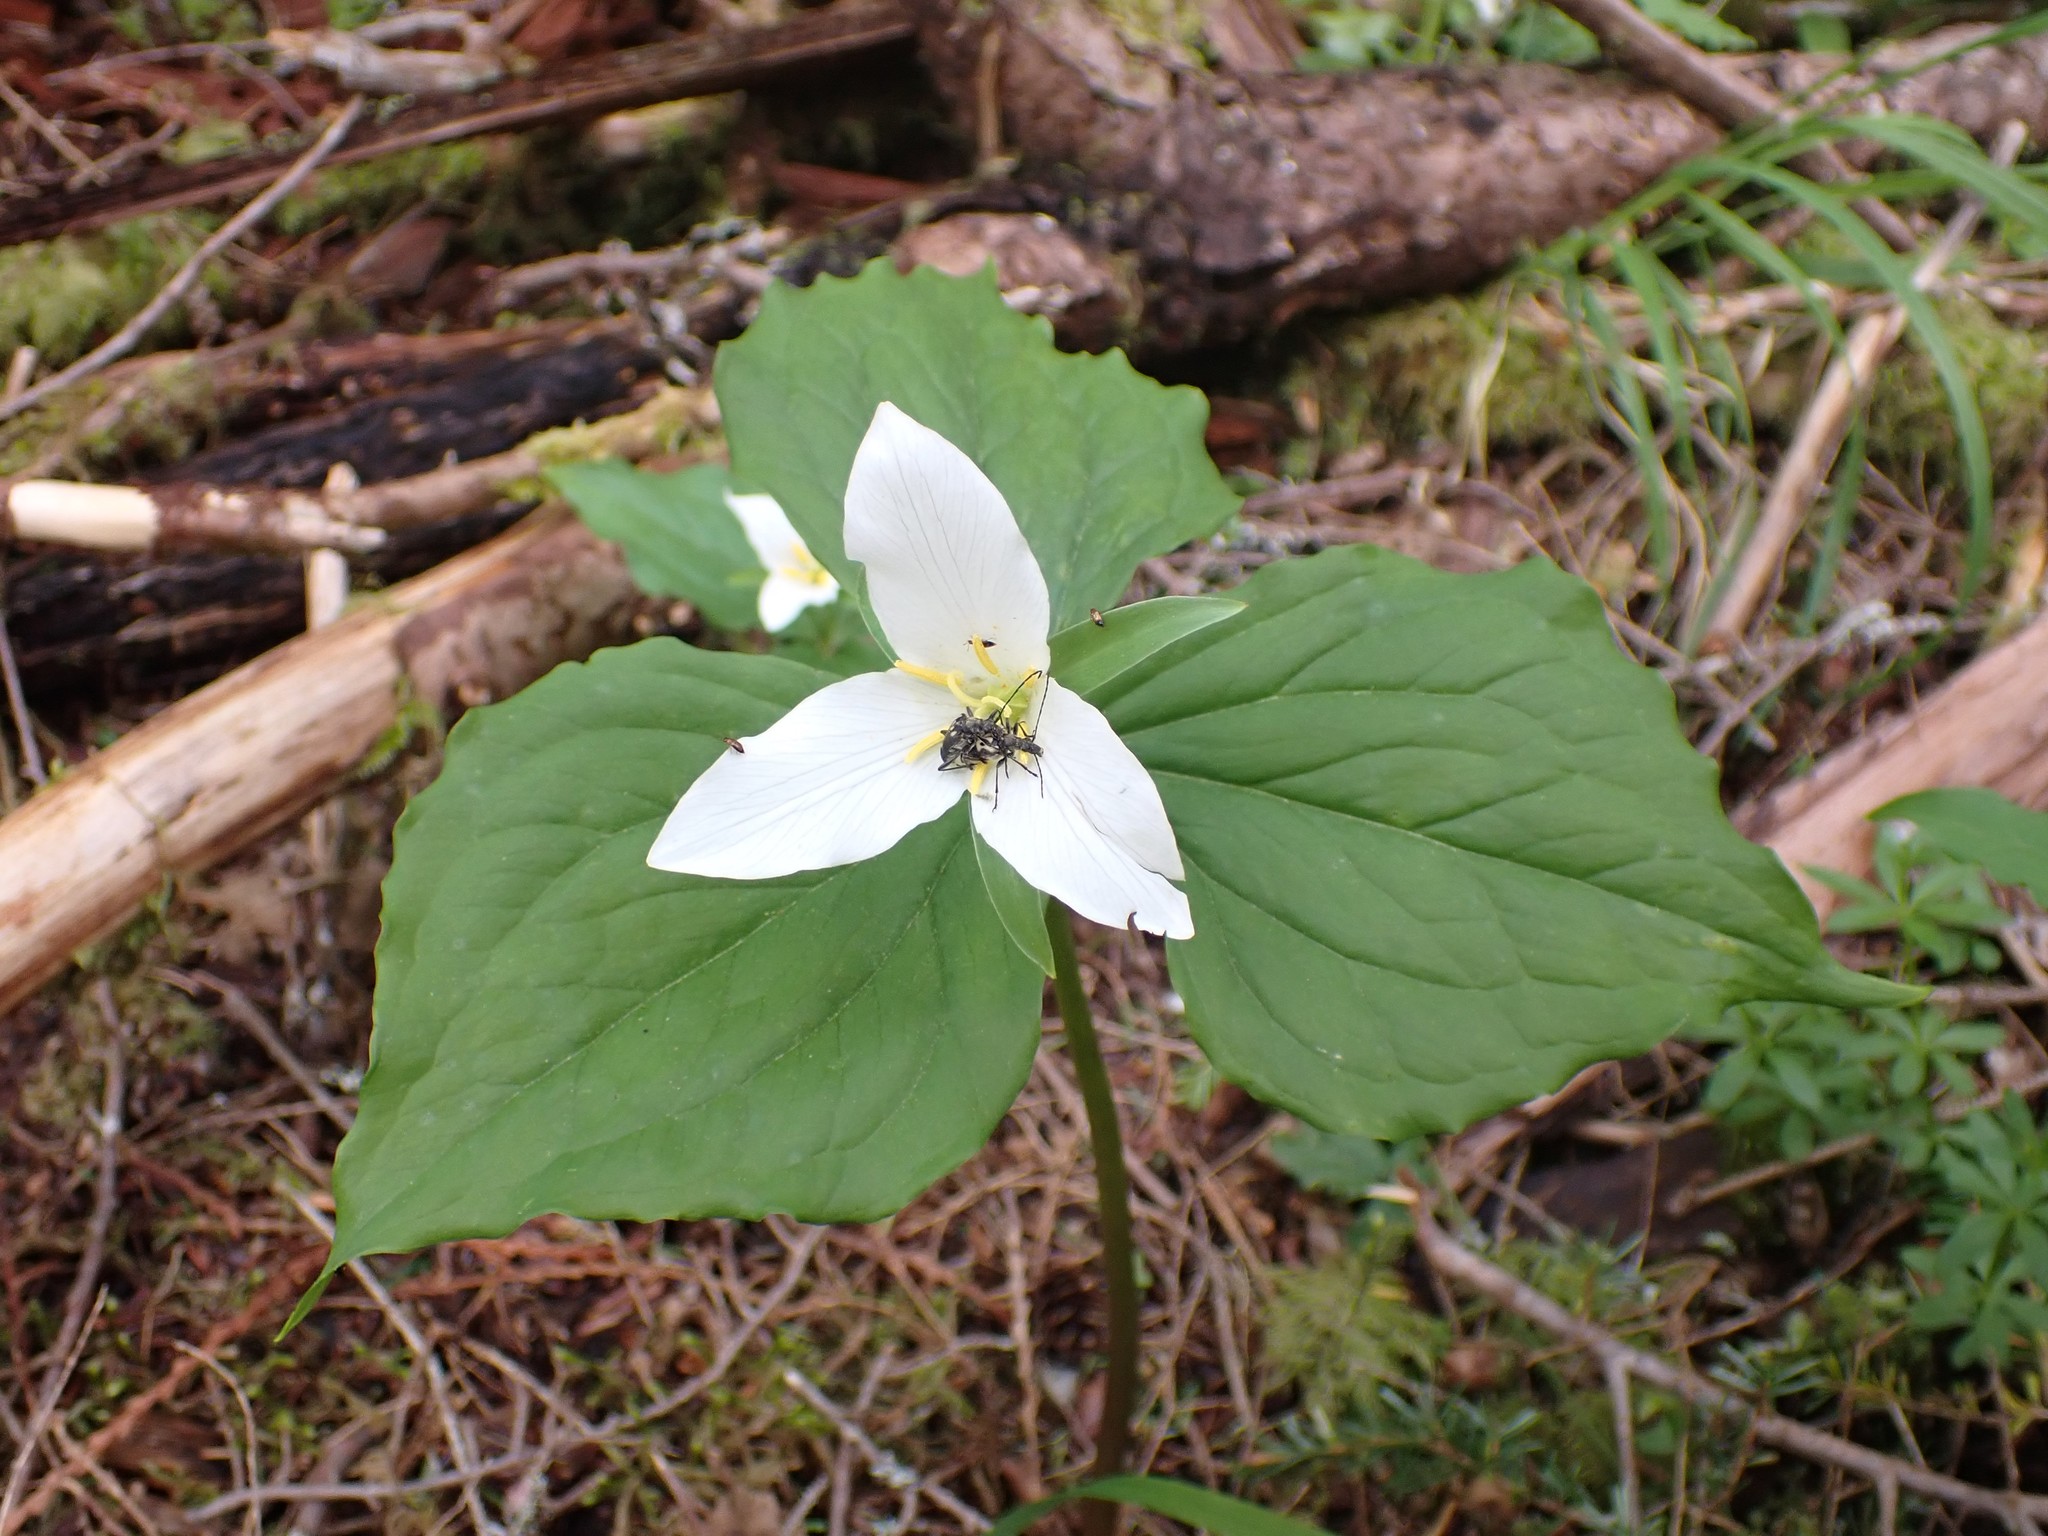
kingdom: Plantae
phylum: Tracheophyta
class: Liliopsida
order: Liliales
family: Melanthiaceae
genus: Trillium
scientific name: Trillium ovatum
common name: Pacific trillium
